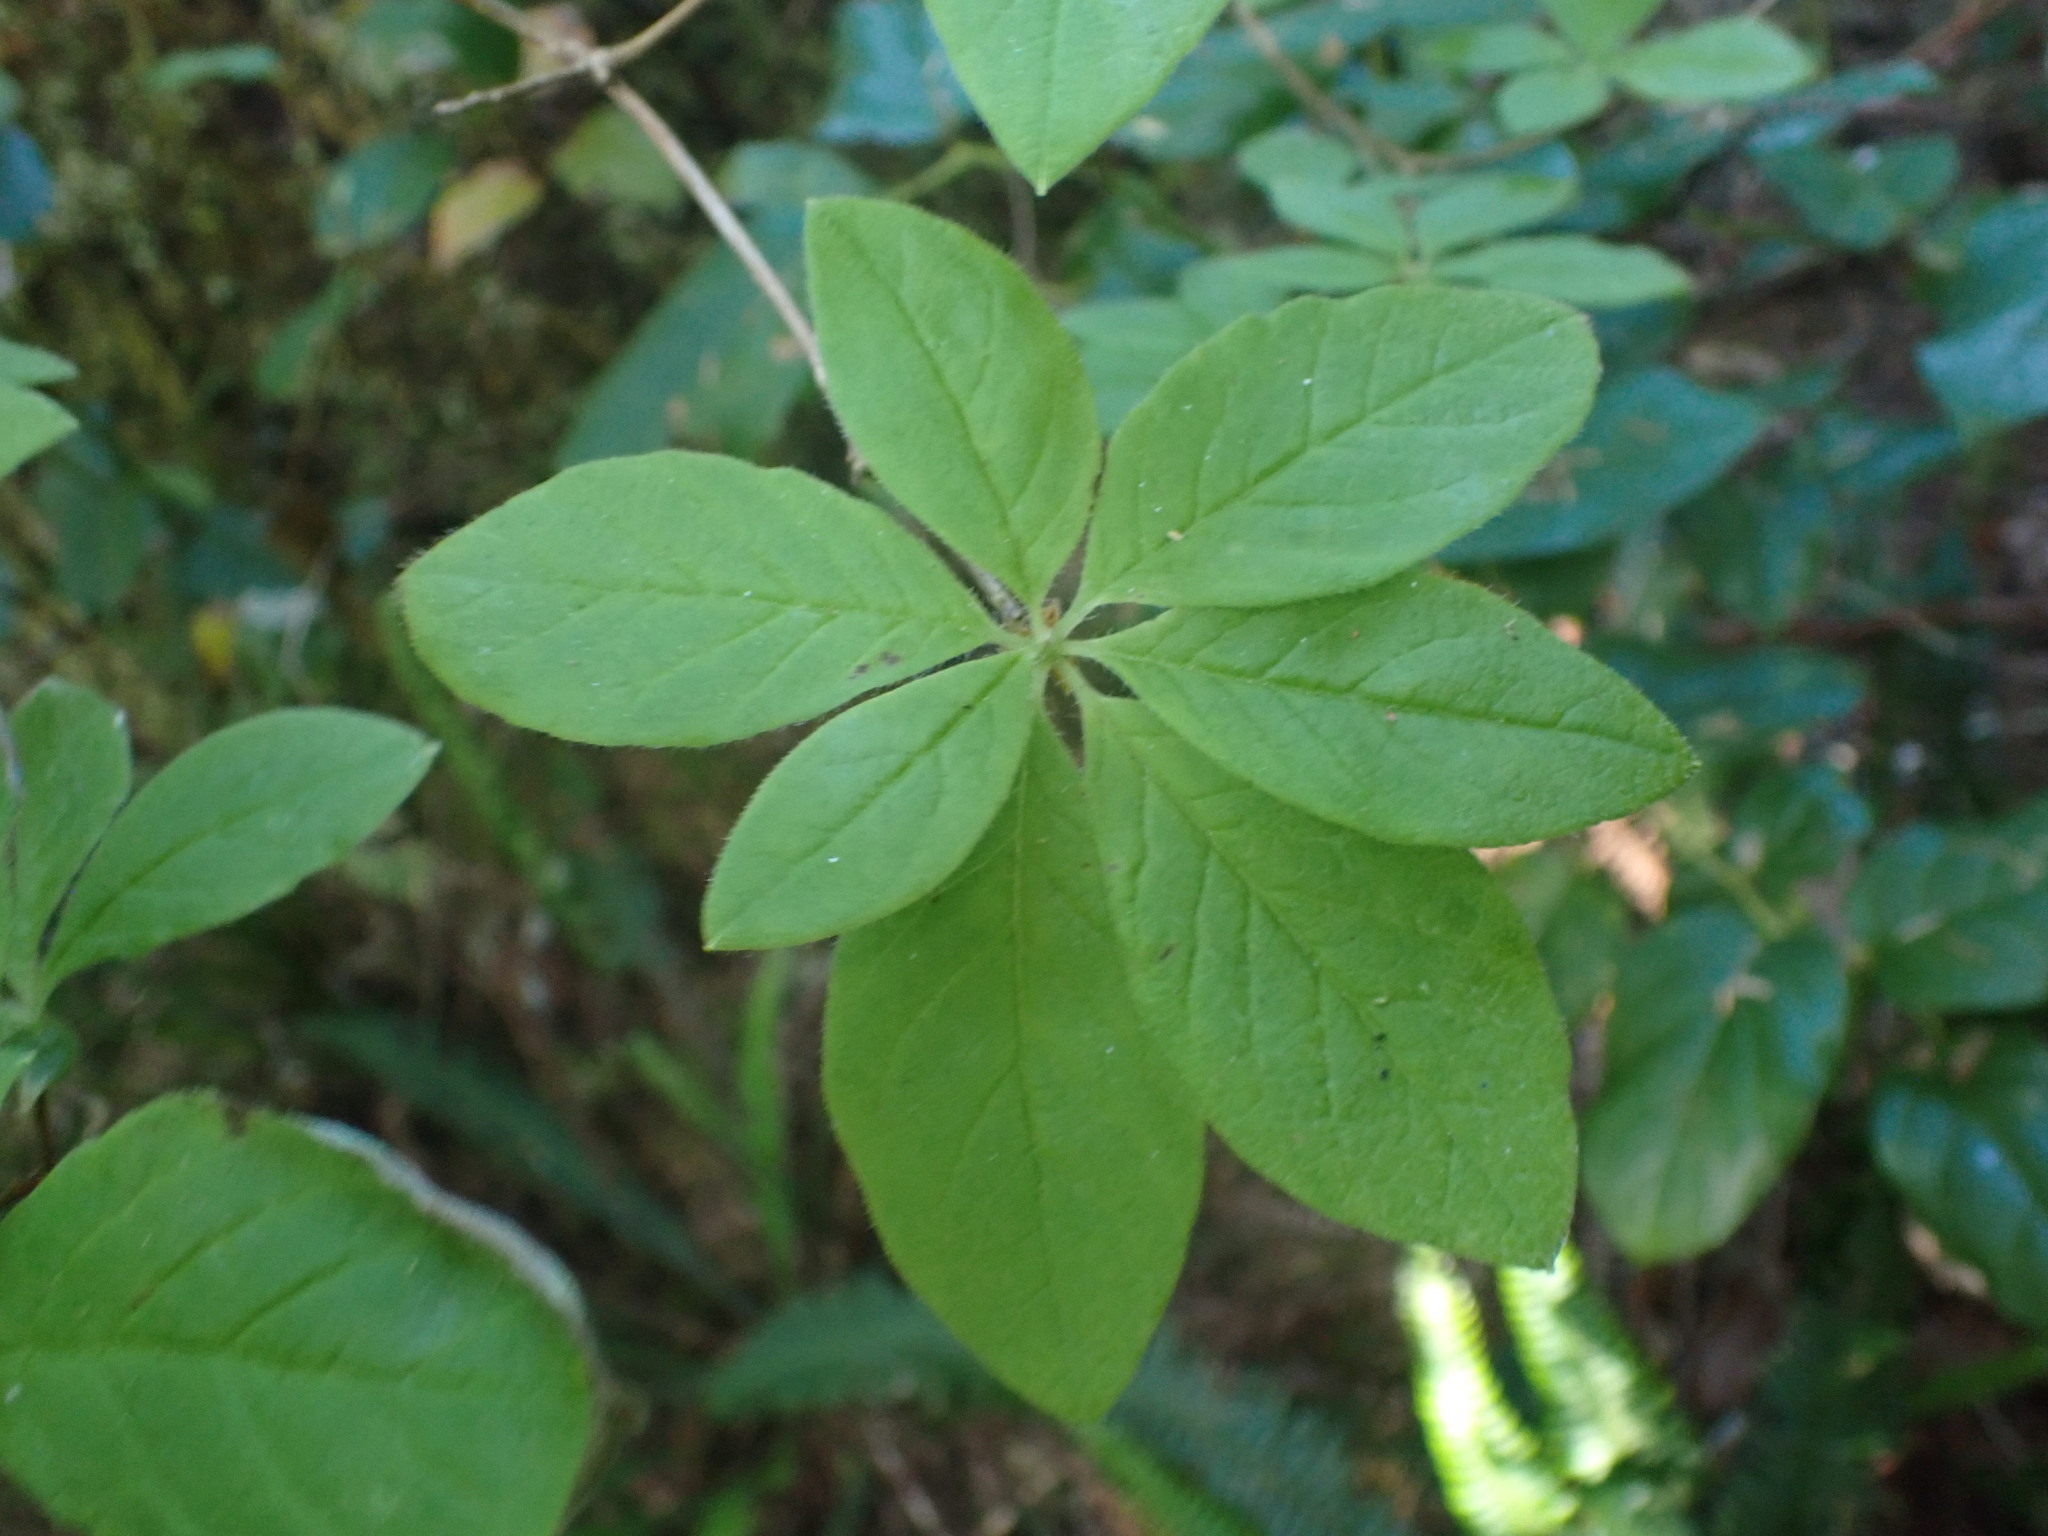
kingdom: Plantae
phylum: Tracheophyta
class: Magnoliopsida
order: Ericales
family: Ericaceae
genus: Rhododendron
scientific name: Rhododendron menziesii
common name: Pacific menziesia
